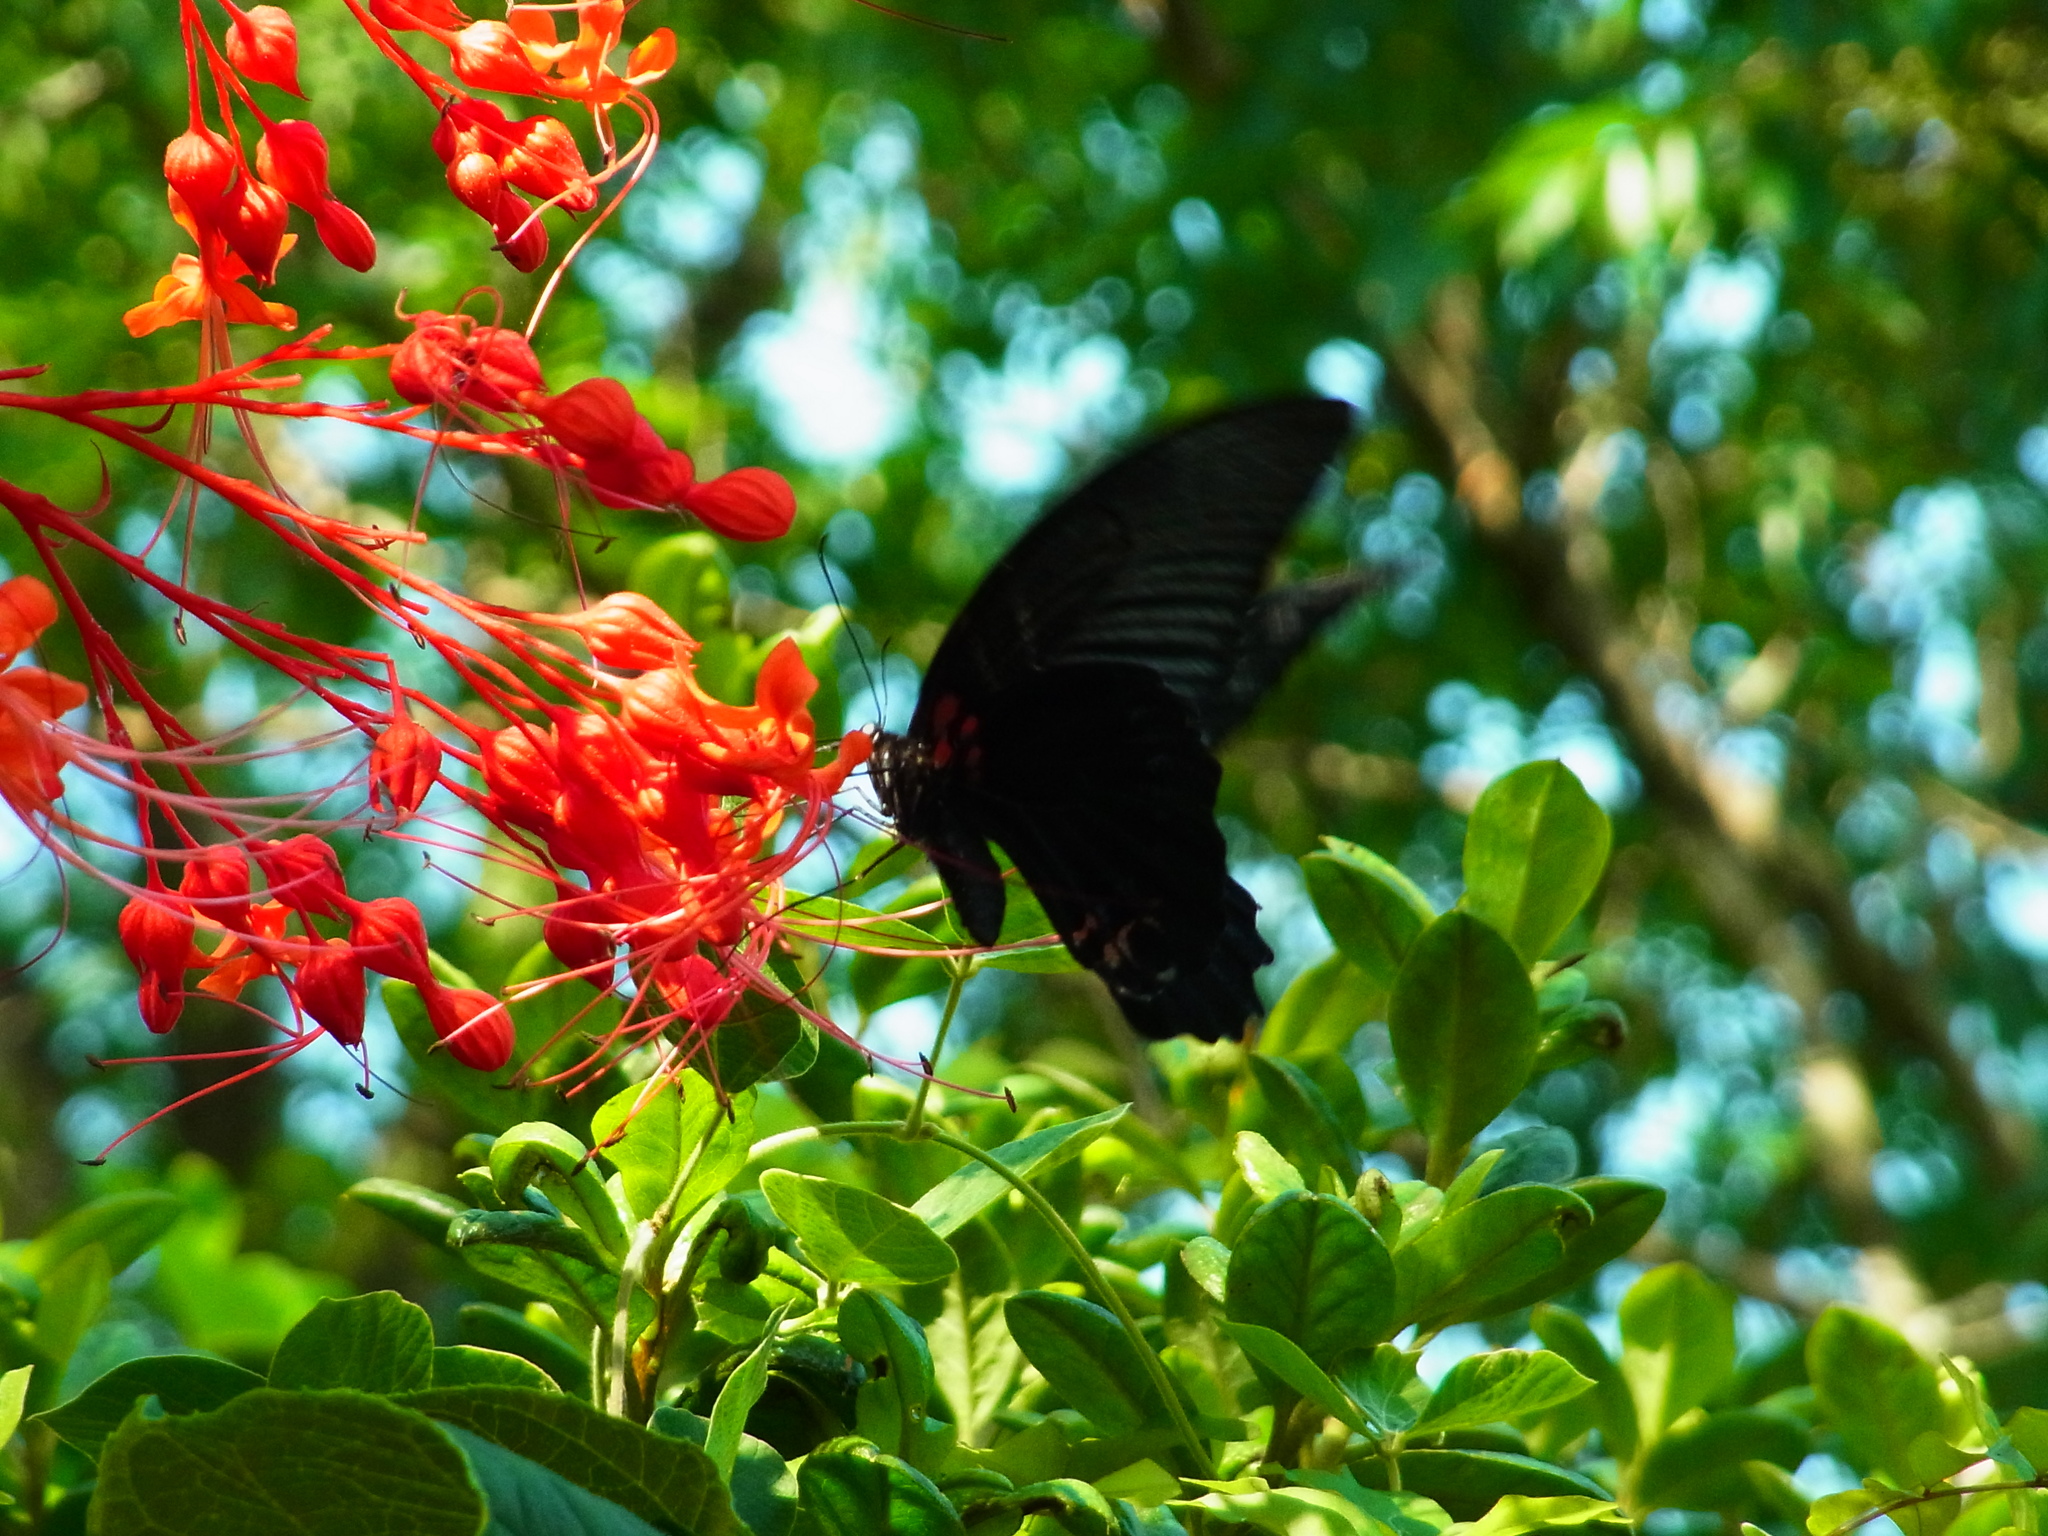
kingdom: Animalia
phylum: Arthropoda
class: Insecta
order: Lepidoptera
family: Papilionidae
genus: Papilio
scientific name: Papilio memnon
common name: Great mormon
